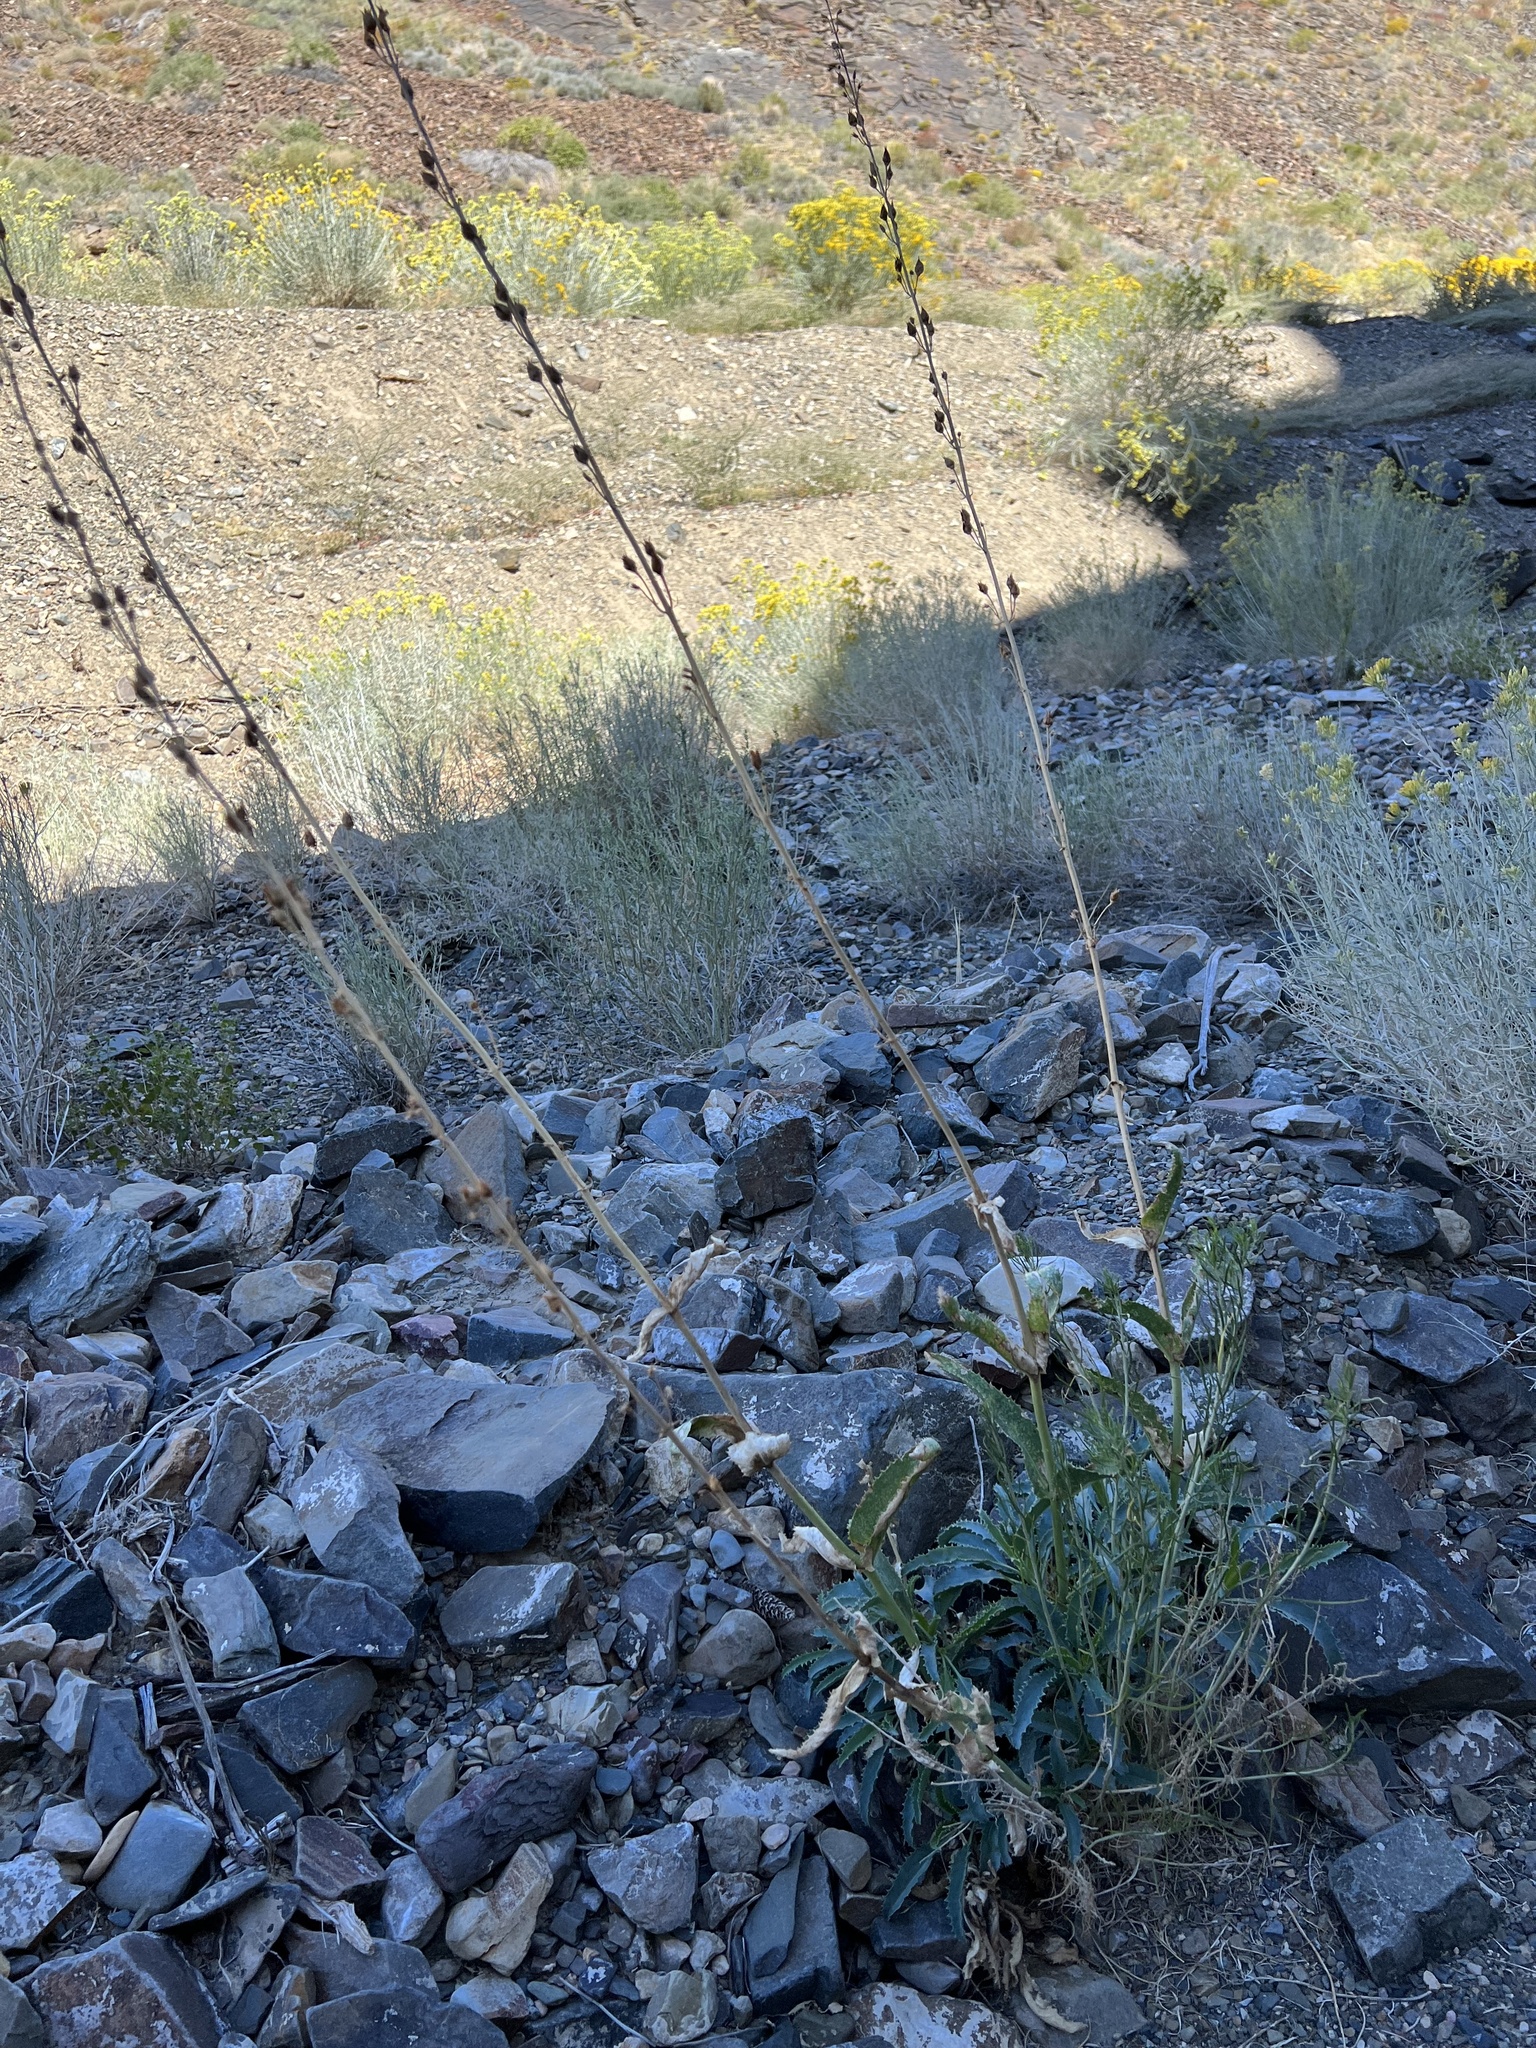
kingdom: Plantae
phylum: Tracheophyta
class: Magnoliopsida
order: Lamiales
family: Plantaginaceae
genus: Penstemon
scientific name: Penstemon floridus
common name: Panamint penstemon
